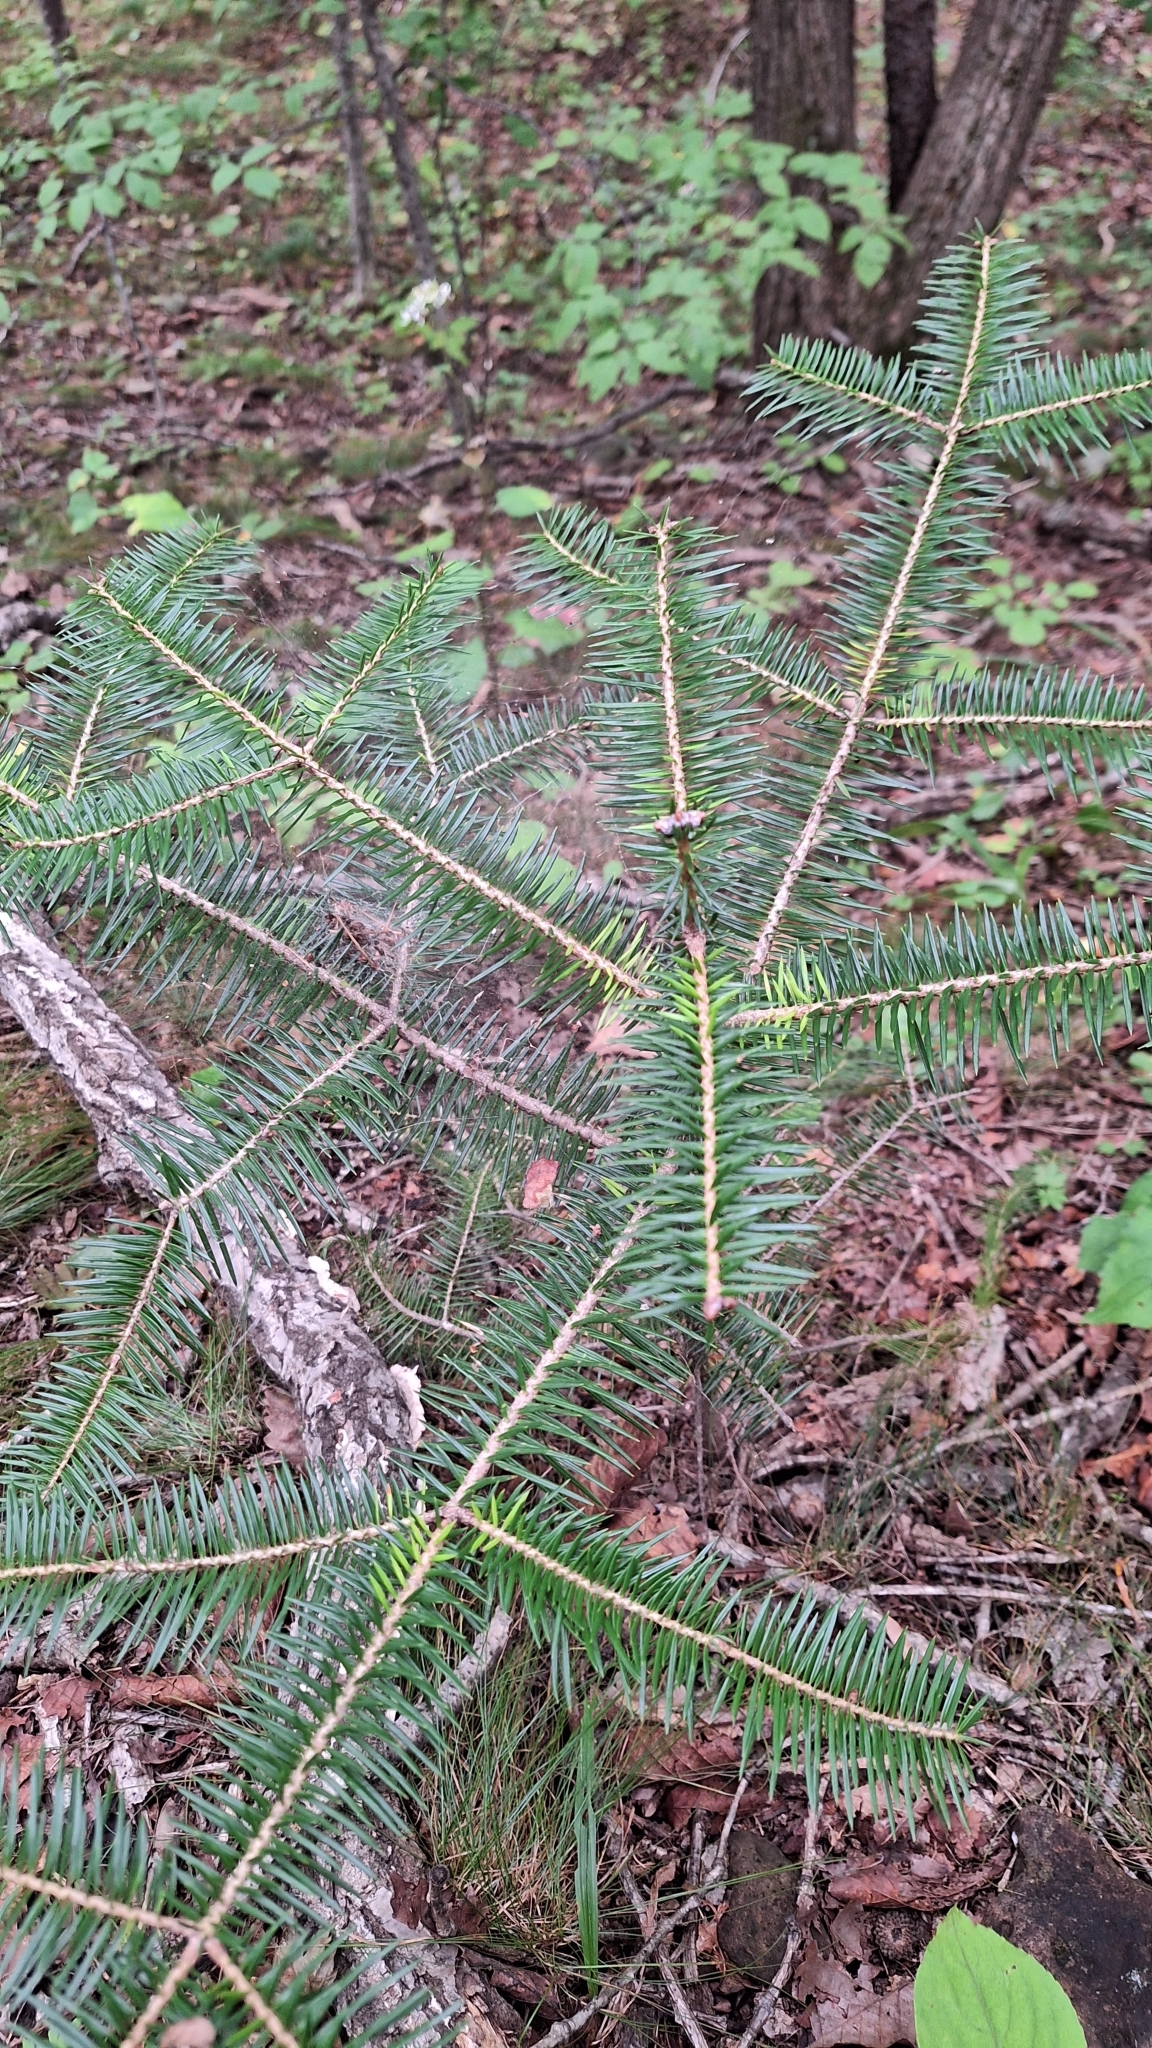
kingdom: Plantae
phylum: Tracheophyta
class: Pinopsida
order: Pinales
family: Pinaceae
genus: Abies
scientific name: Abies holophylla
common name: Manchurian fir
